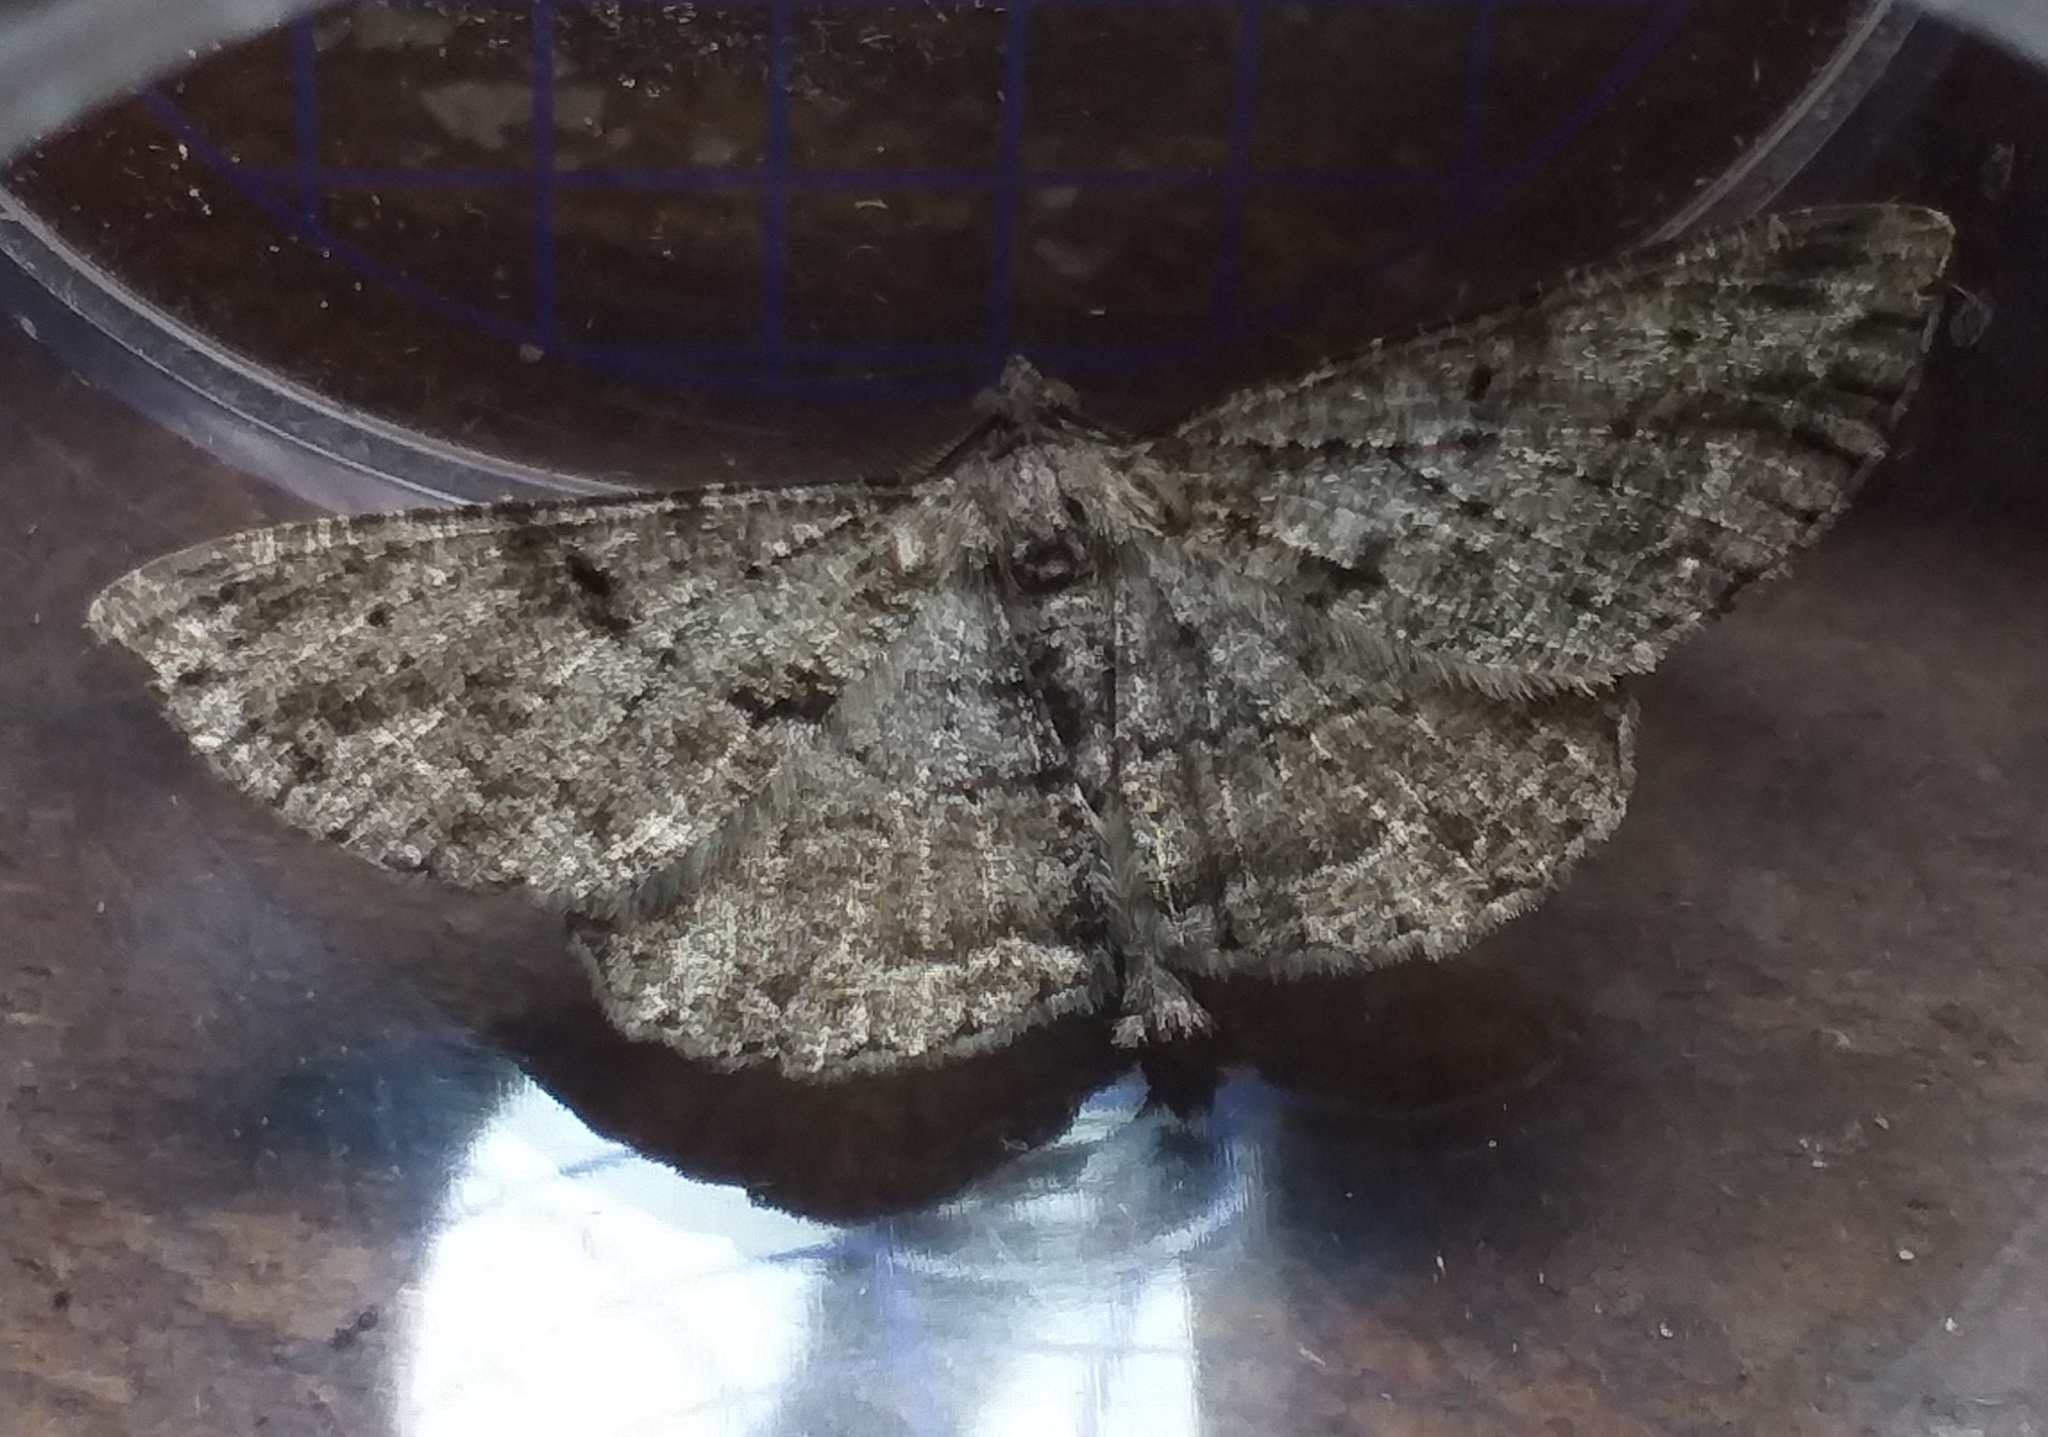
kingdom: Animalia
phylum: Arthropoda
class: Insecta
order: Lepidoptera
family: Geometridae
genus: Peribatodes
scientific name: Peribatodes rhomboidaria
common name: Willow beauty
